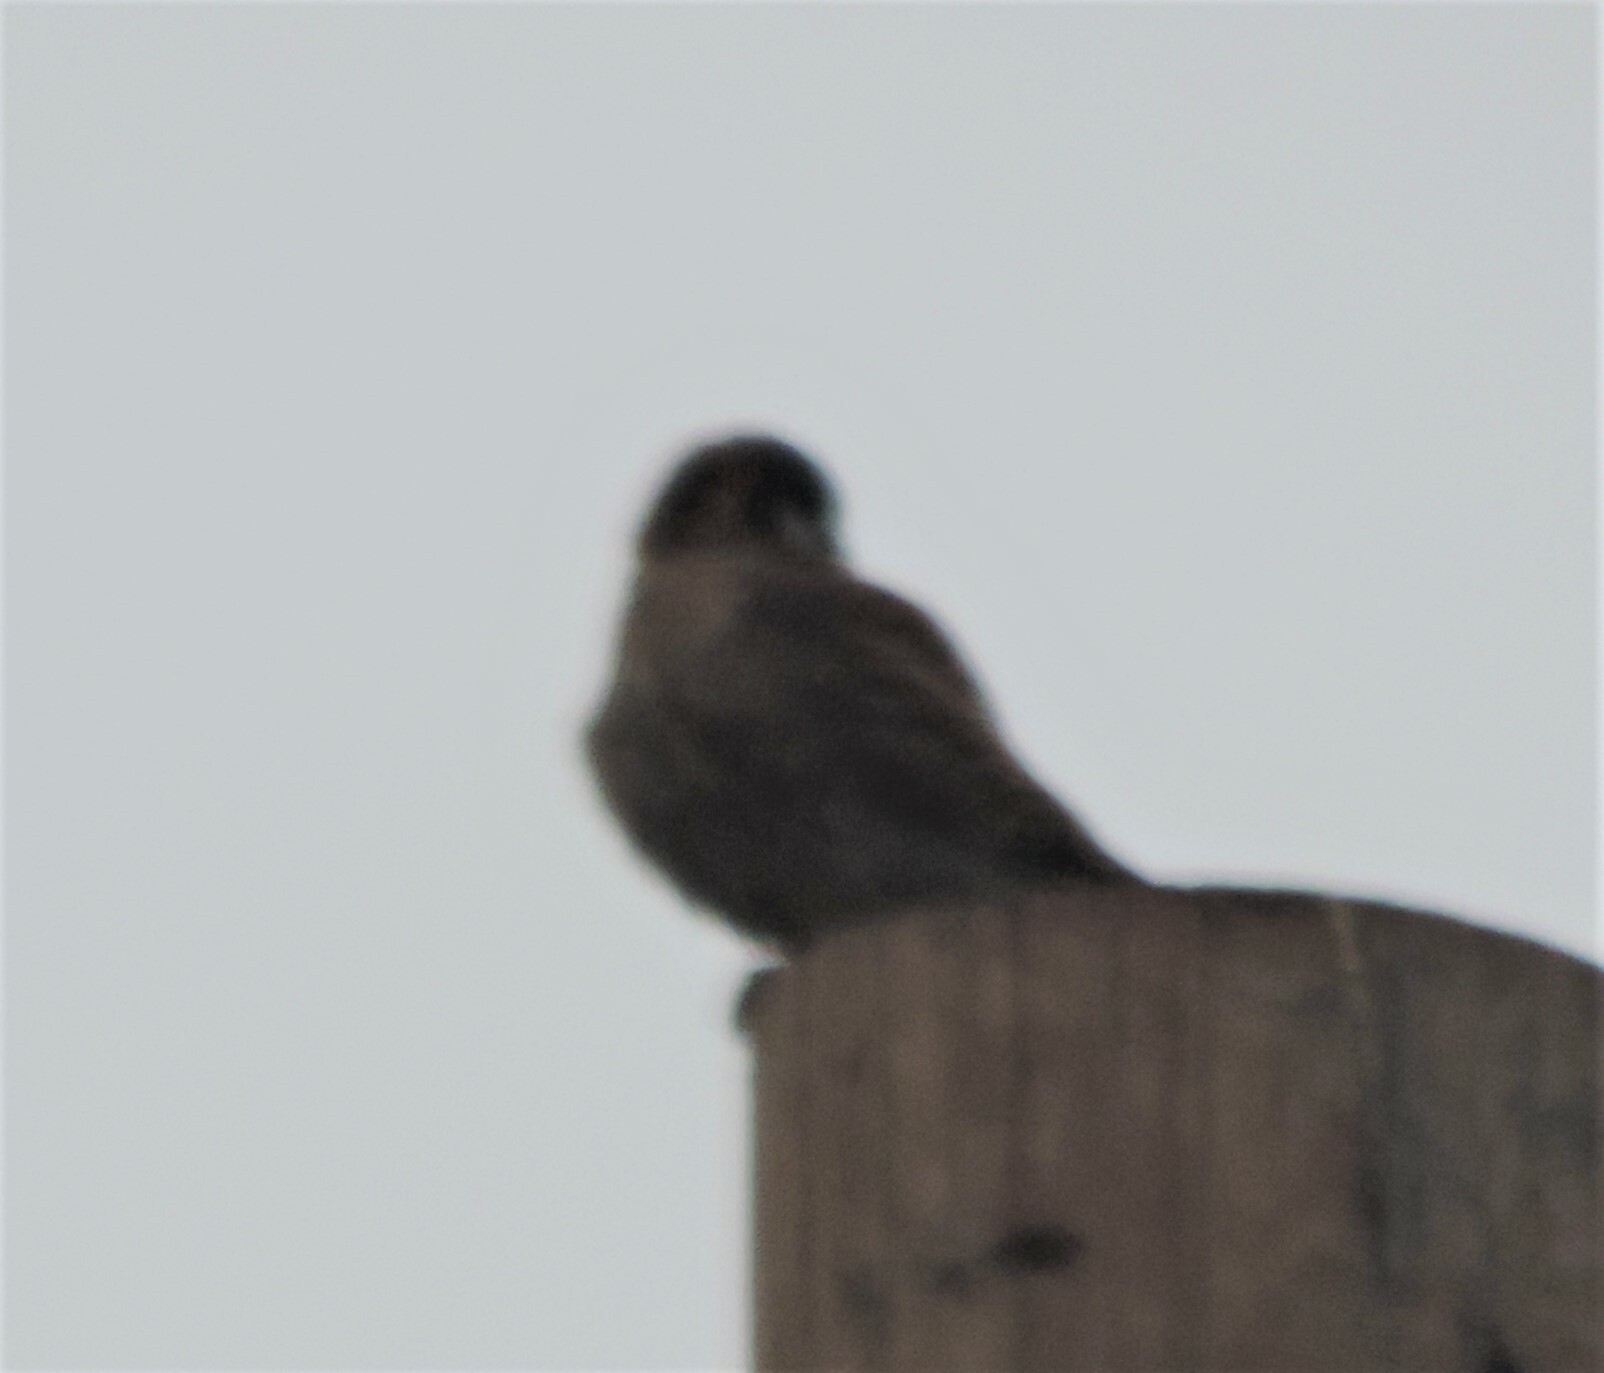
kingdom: Animalia
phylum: Chordata
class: Aves
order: Falconiformes
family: Falconidae
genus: Falco
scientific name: Falco sparverius
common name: American kestrel
